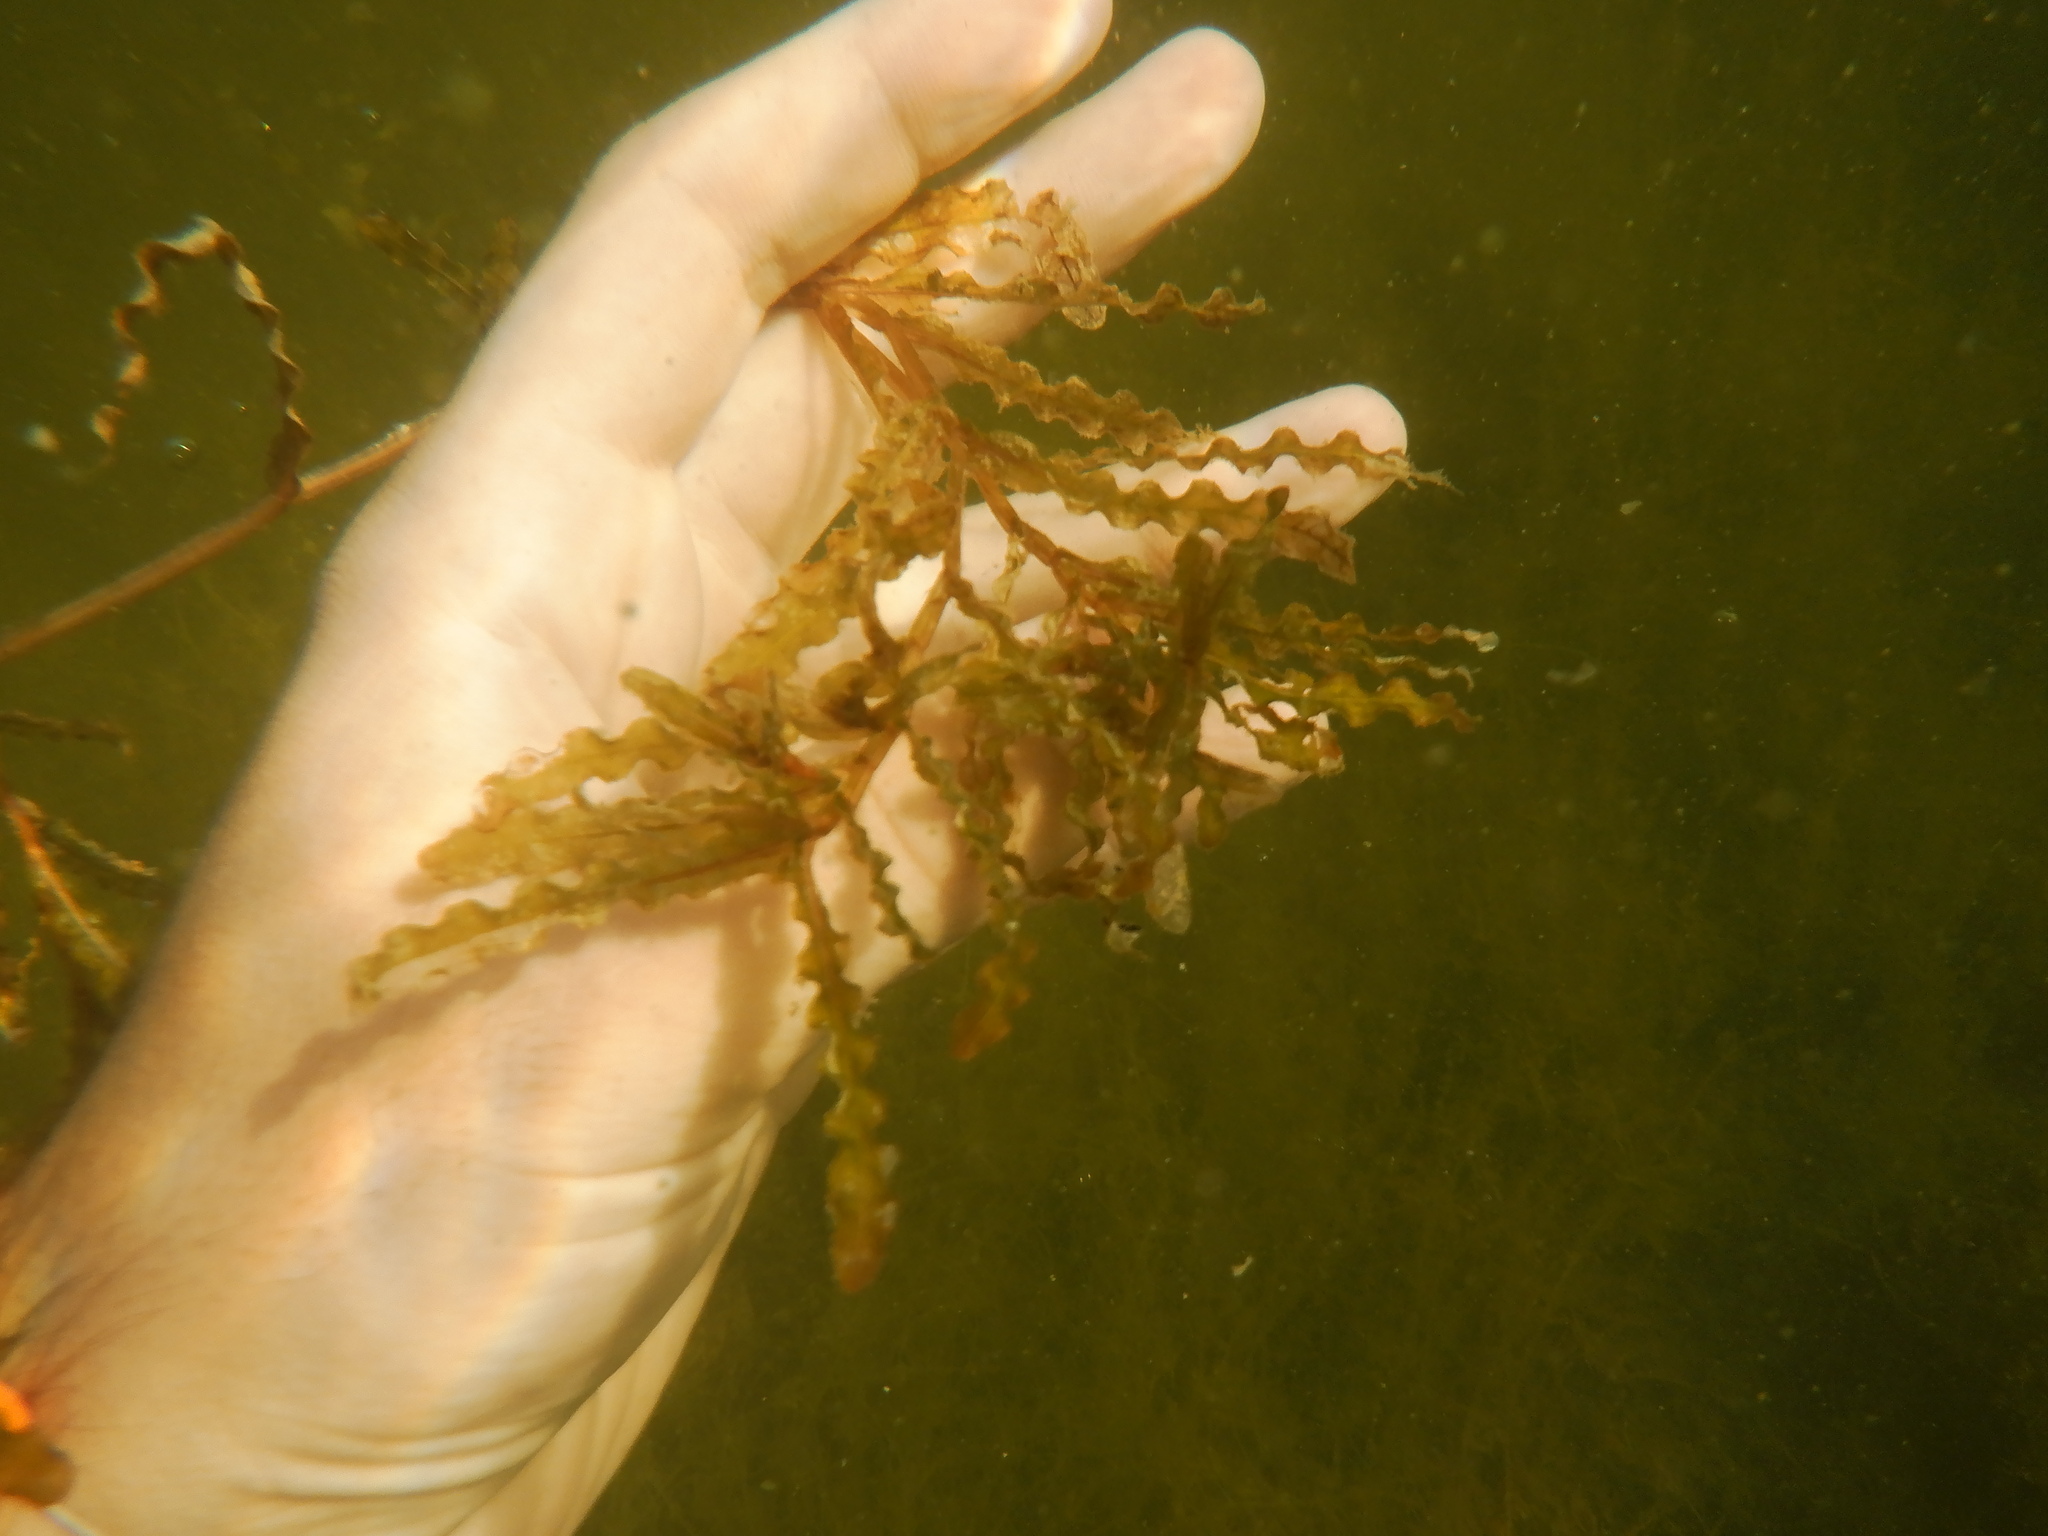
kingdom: Plantae
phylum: Tracheophyta
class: Liliopsida
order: Alismatales
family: Potamogetonaceae
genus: Potamogeton
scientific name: Potamogeton crispus
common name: Curled pondweed
